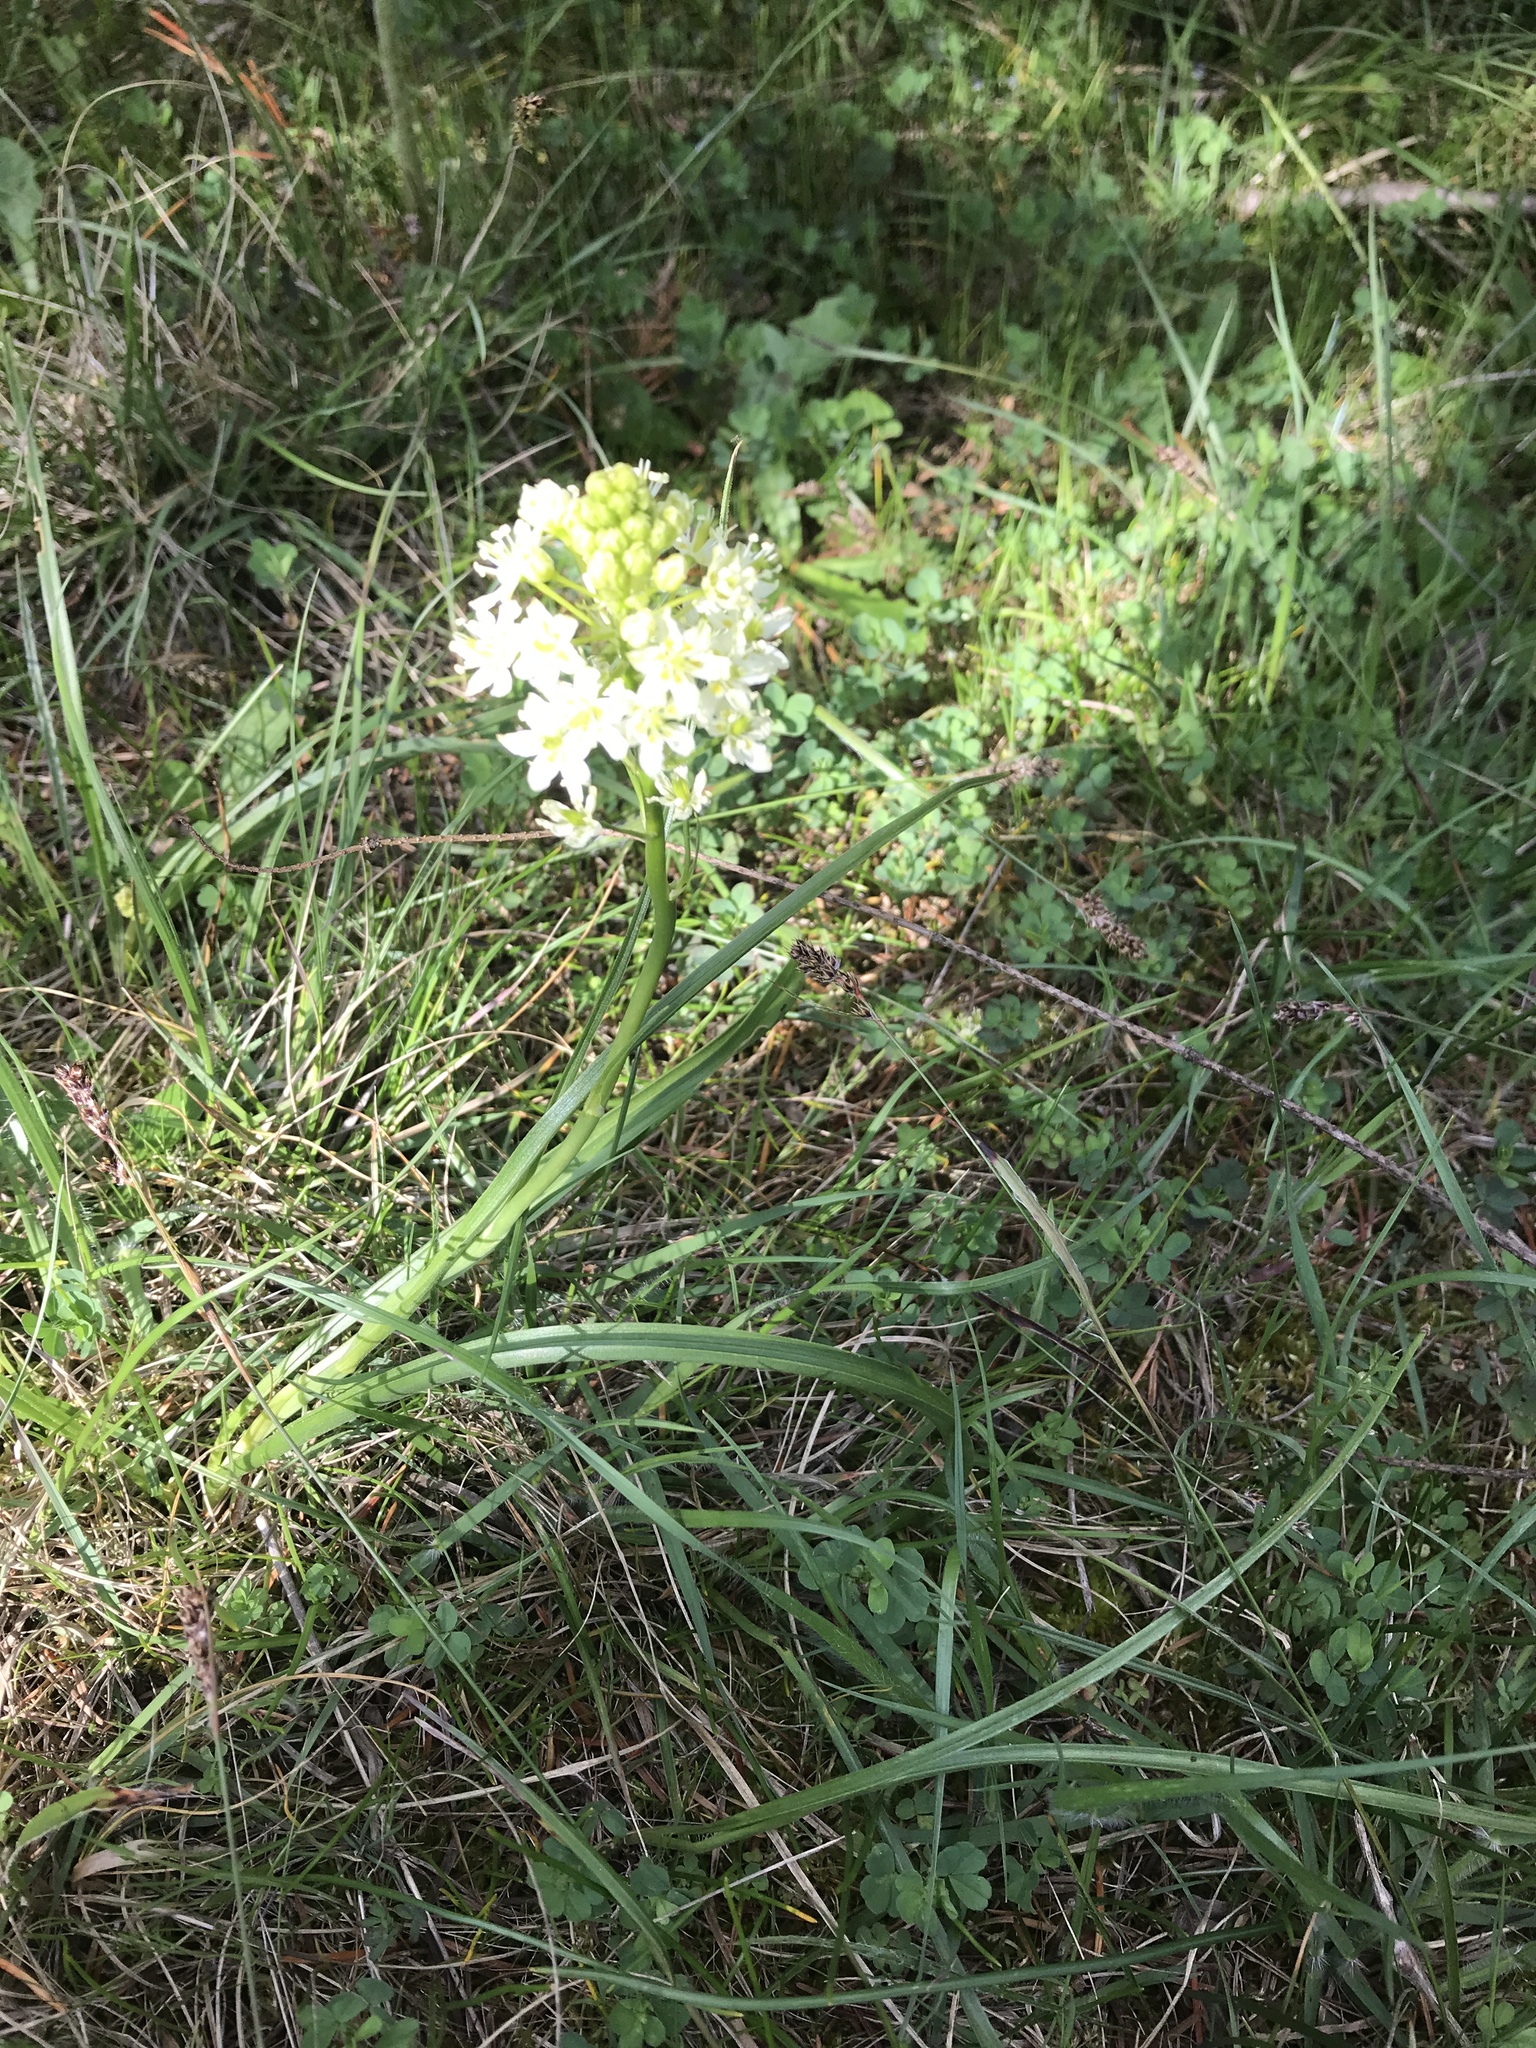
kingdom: Plantae
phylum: Tracheophyta
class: Liliopsida
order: Liliales
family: Melanthiaceae
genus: Toxicoscordion
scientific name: Toxicoscordion venenosum
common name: Meadow death camas
